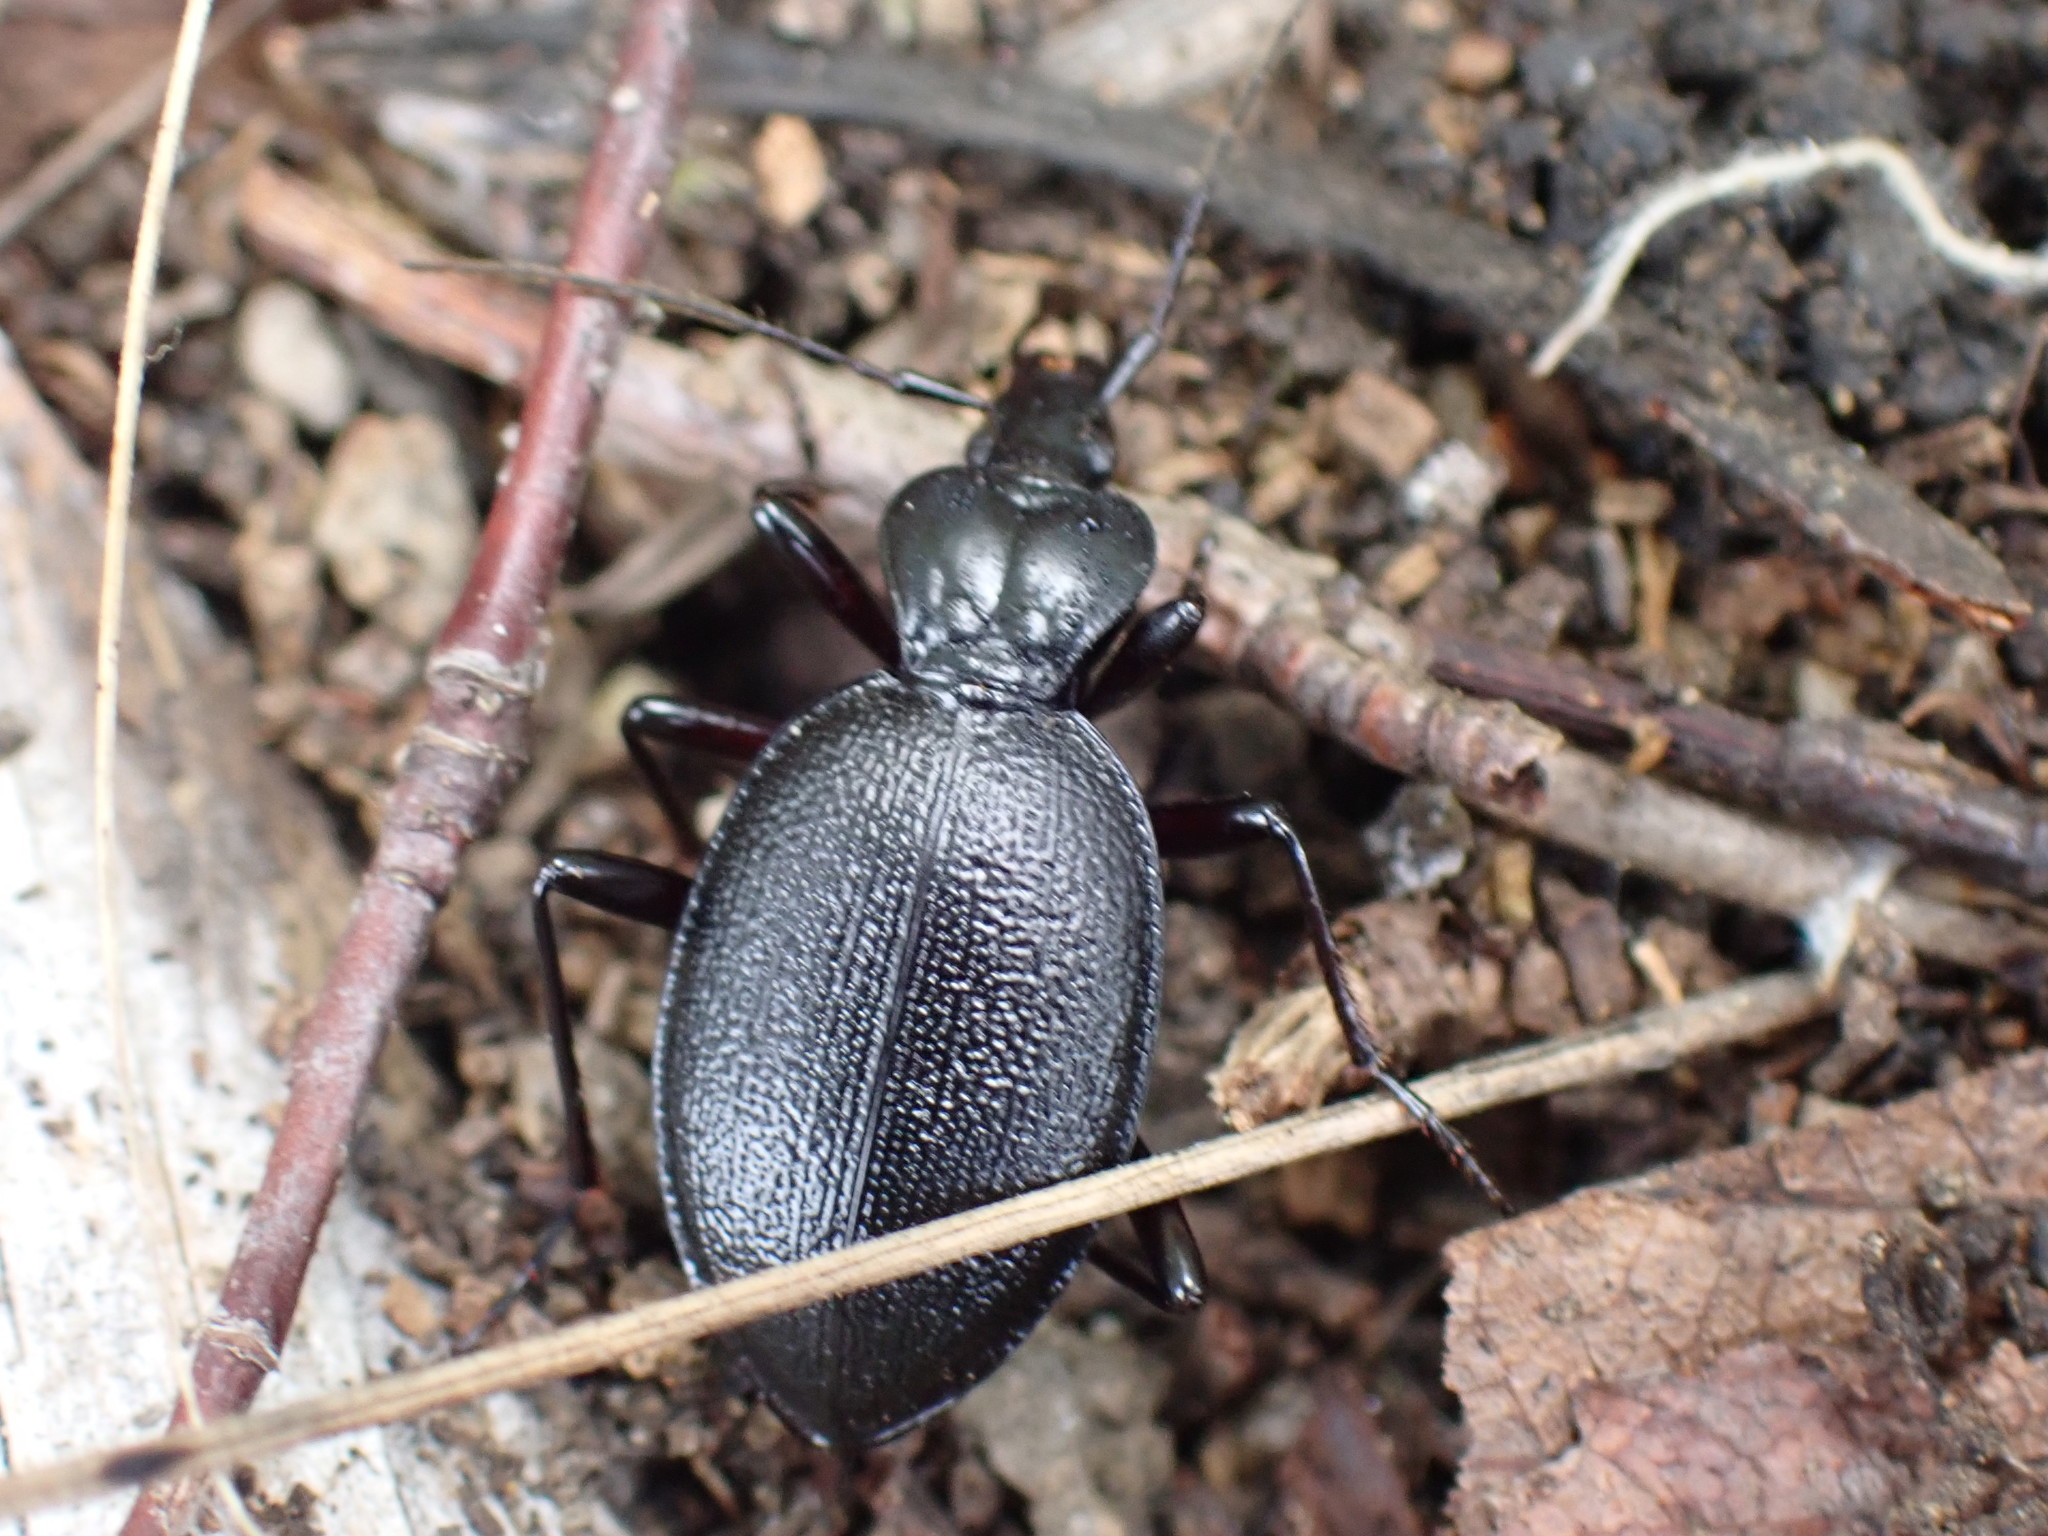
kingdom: Animalia
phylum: Arthropoda
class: Insecta
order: Coleoptera
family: Carabidae
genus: Scaphinotus
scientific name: Scaphinotus relictus
